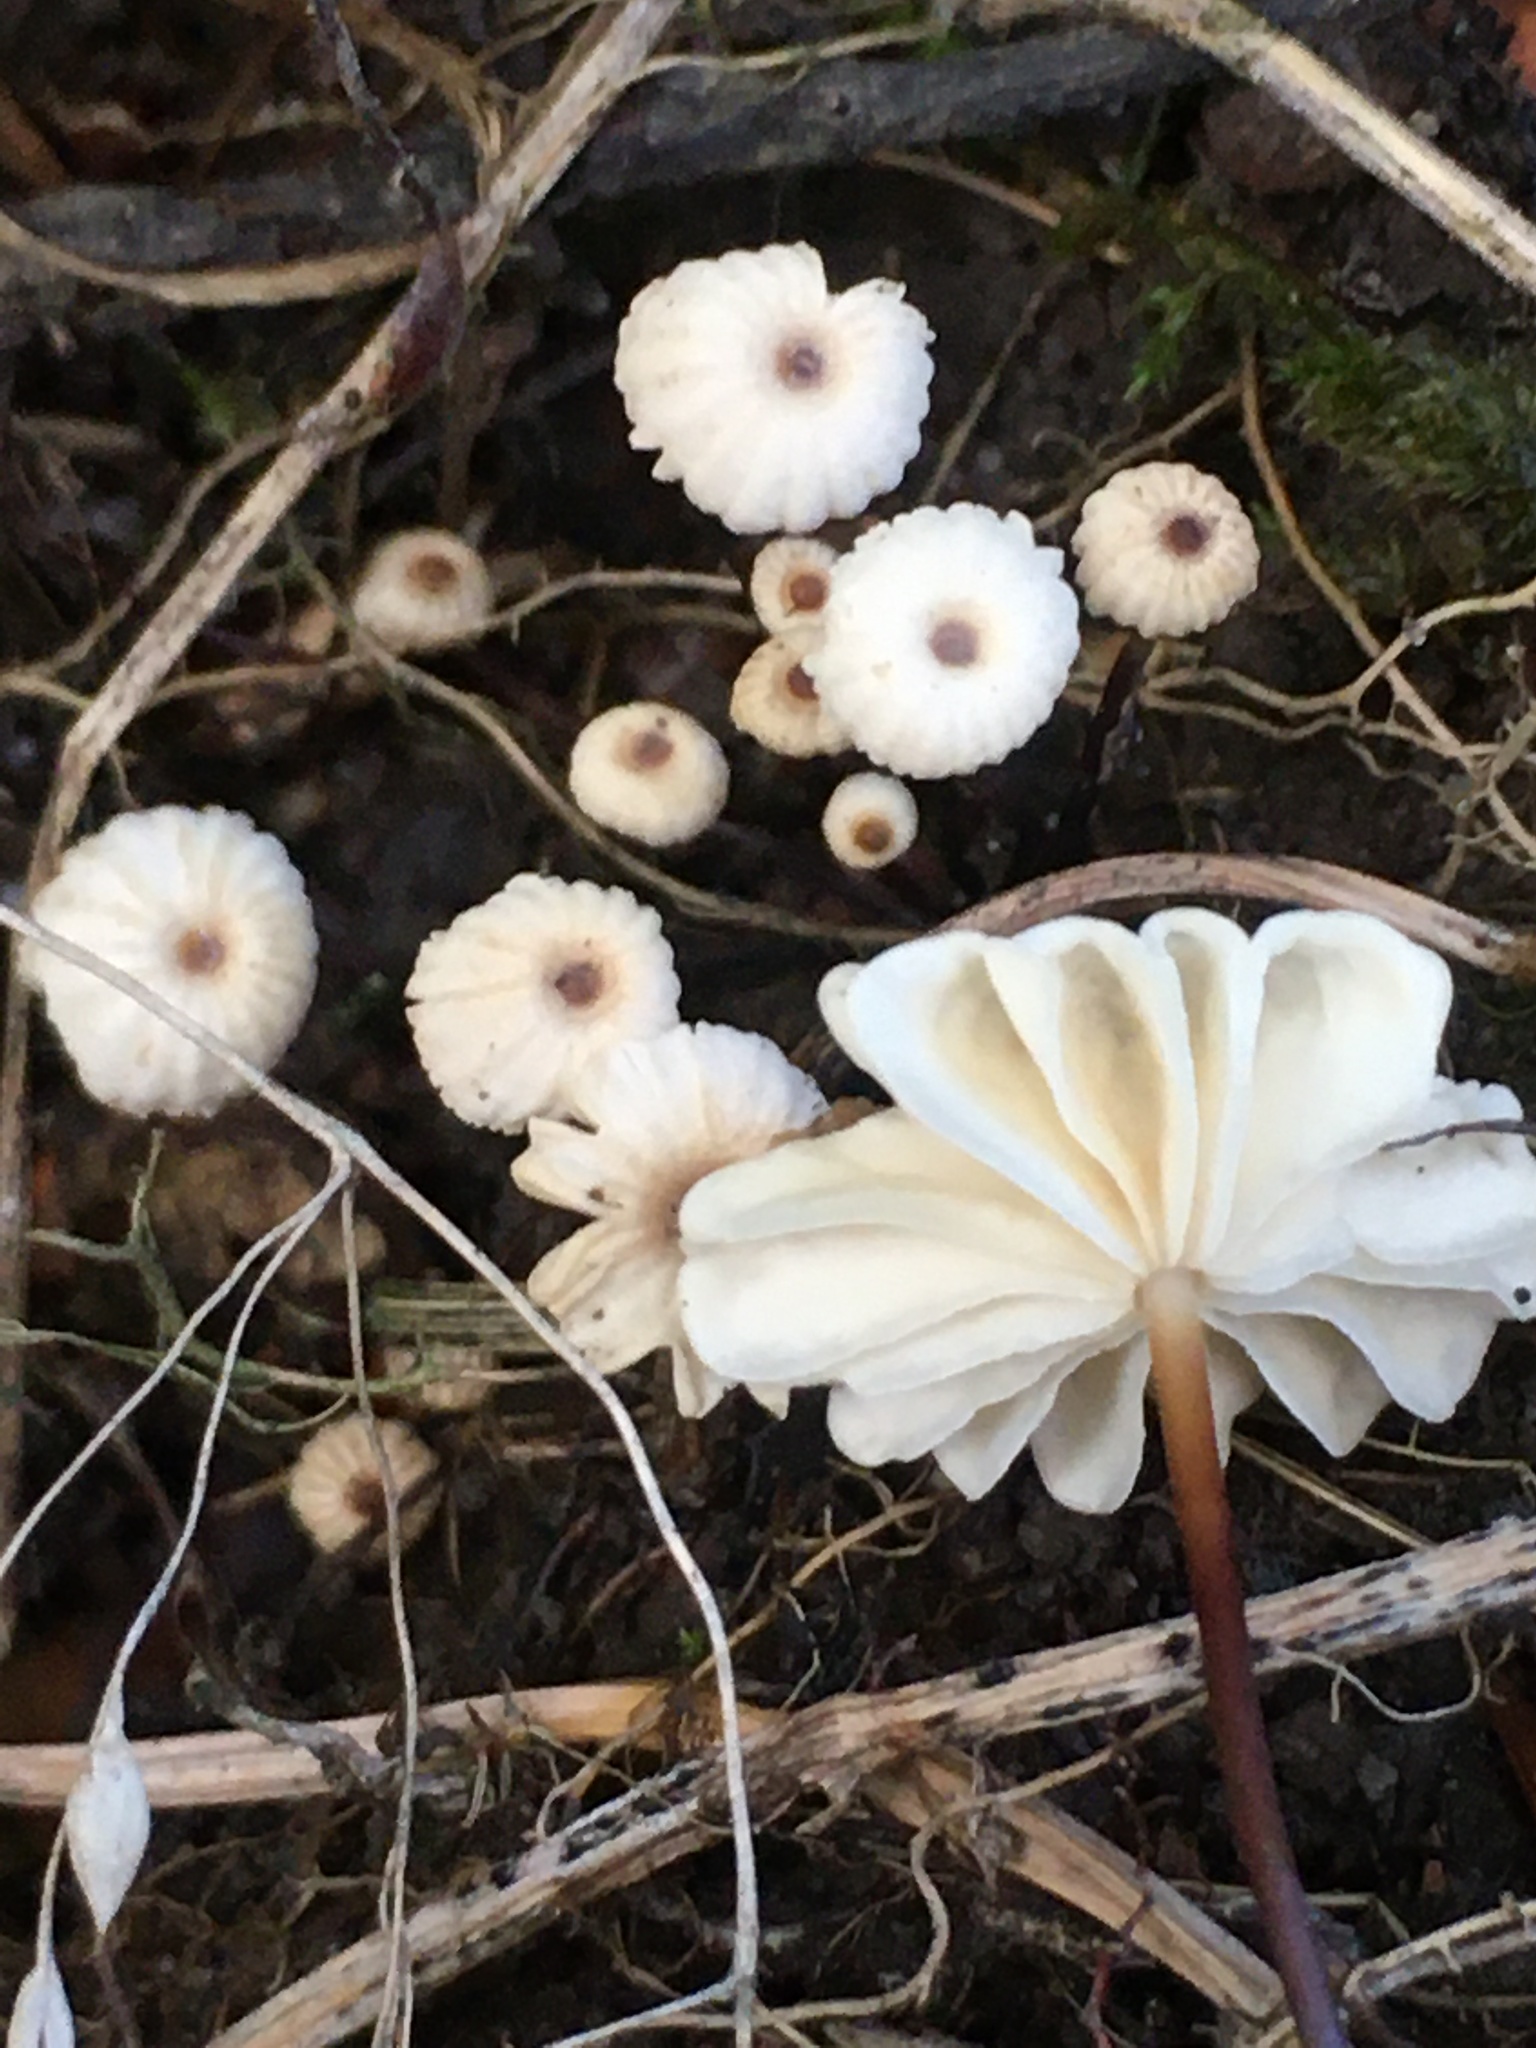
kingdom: Fungi
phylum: Basidiomycota
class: Agaricomycetes
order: Agaricales
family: Marasmiaceae
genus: Marasmius
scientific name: Marasmius rotula
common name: Collared parachute
